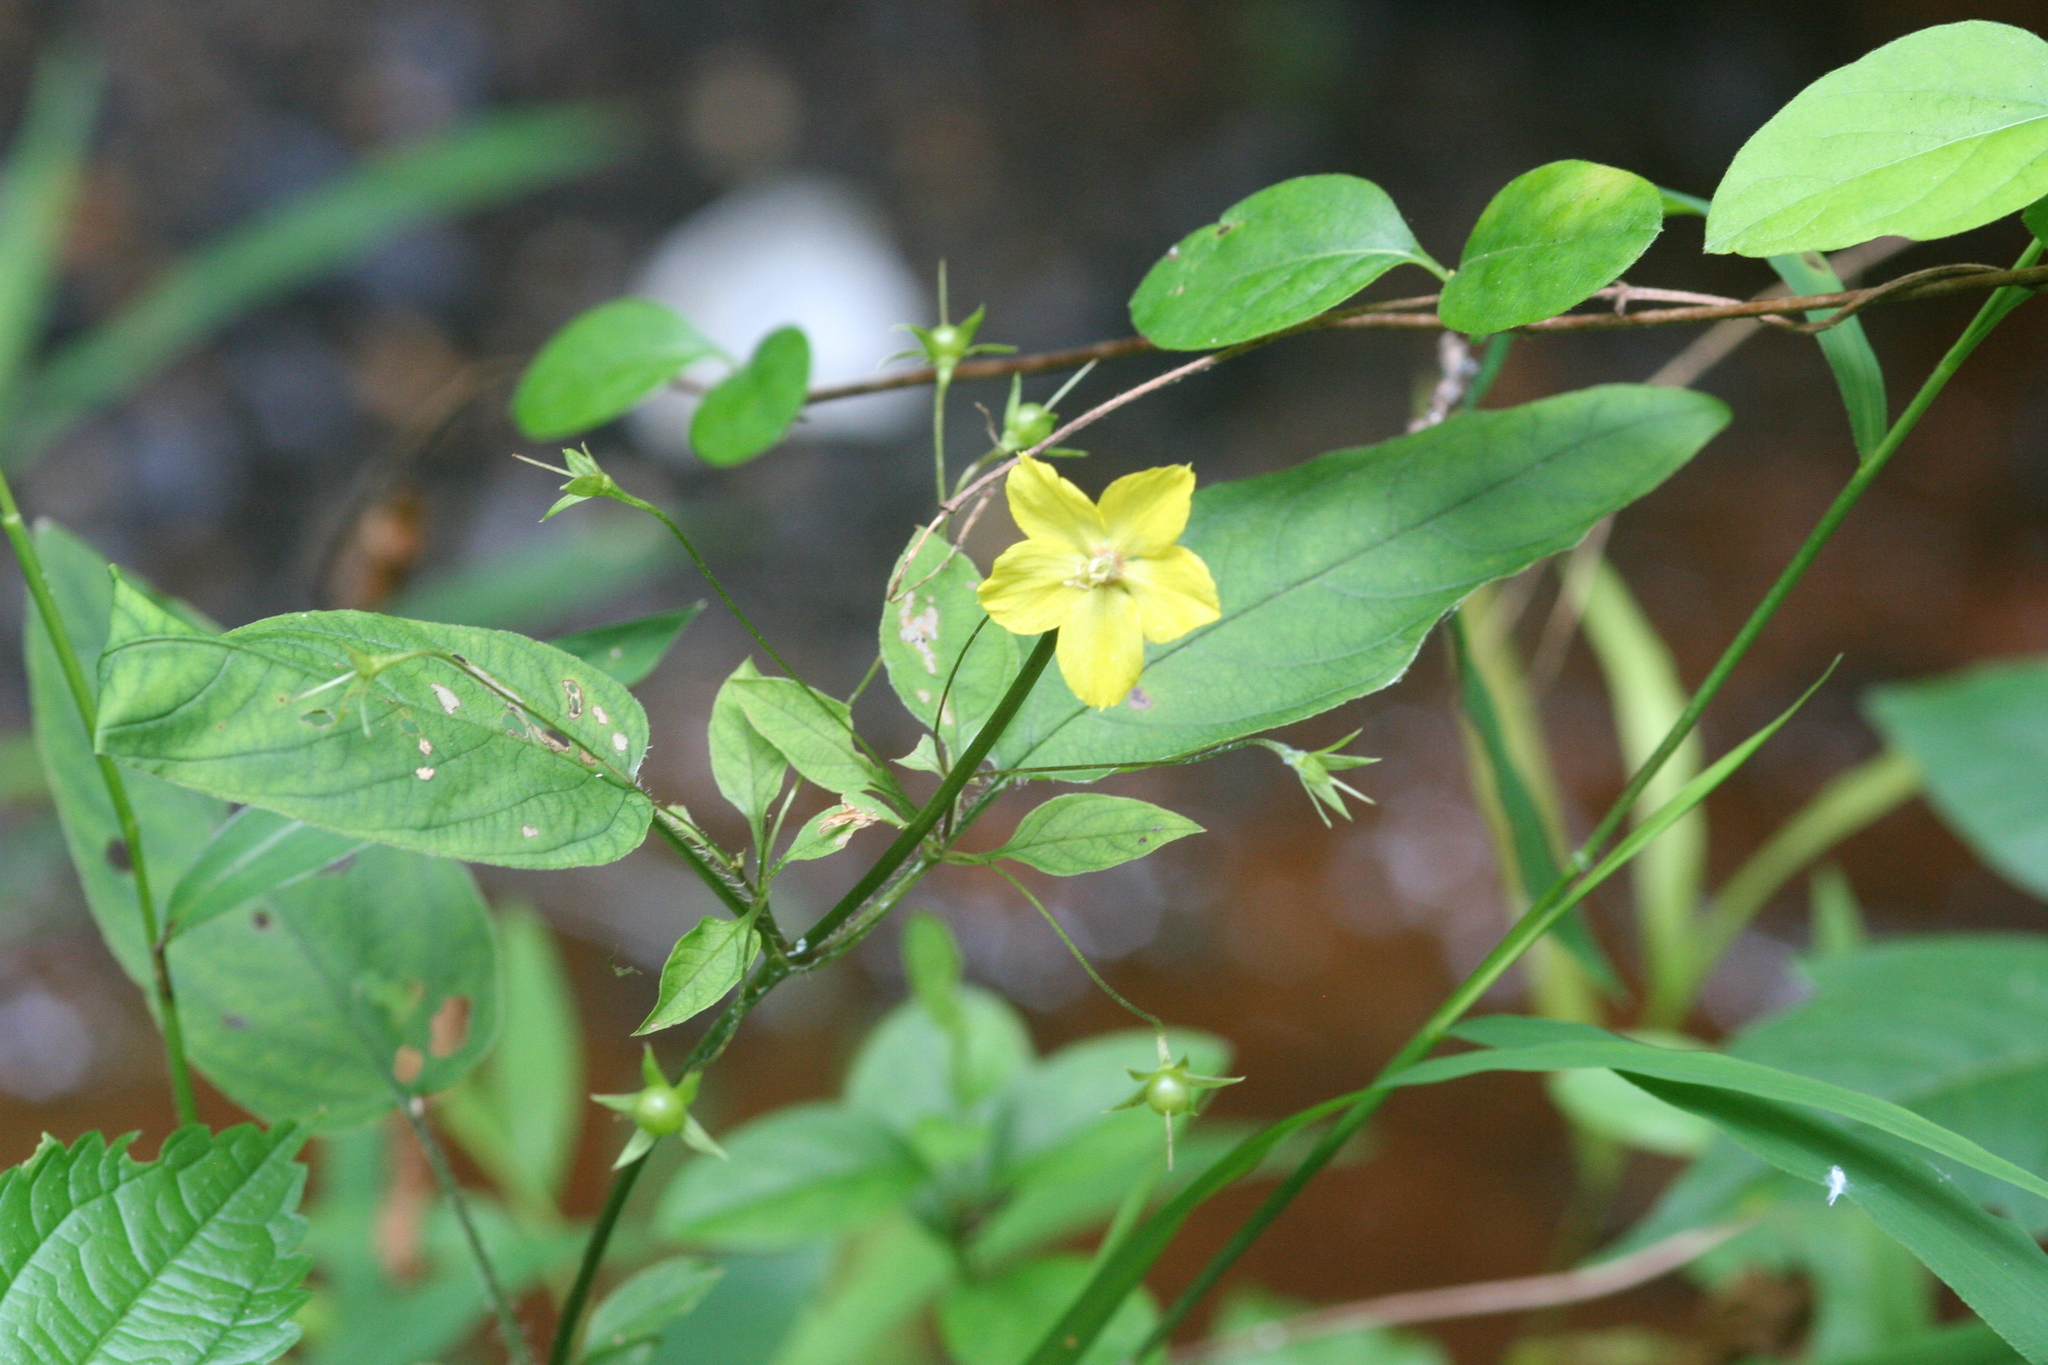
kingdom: Plantae
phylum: Tracheophyta
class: Magnoliopsida
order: Ericales
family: Primulaceae
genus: Lysimachia
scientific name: Lysimachia ciliata
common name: Fringed loosestrife
